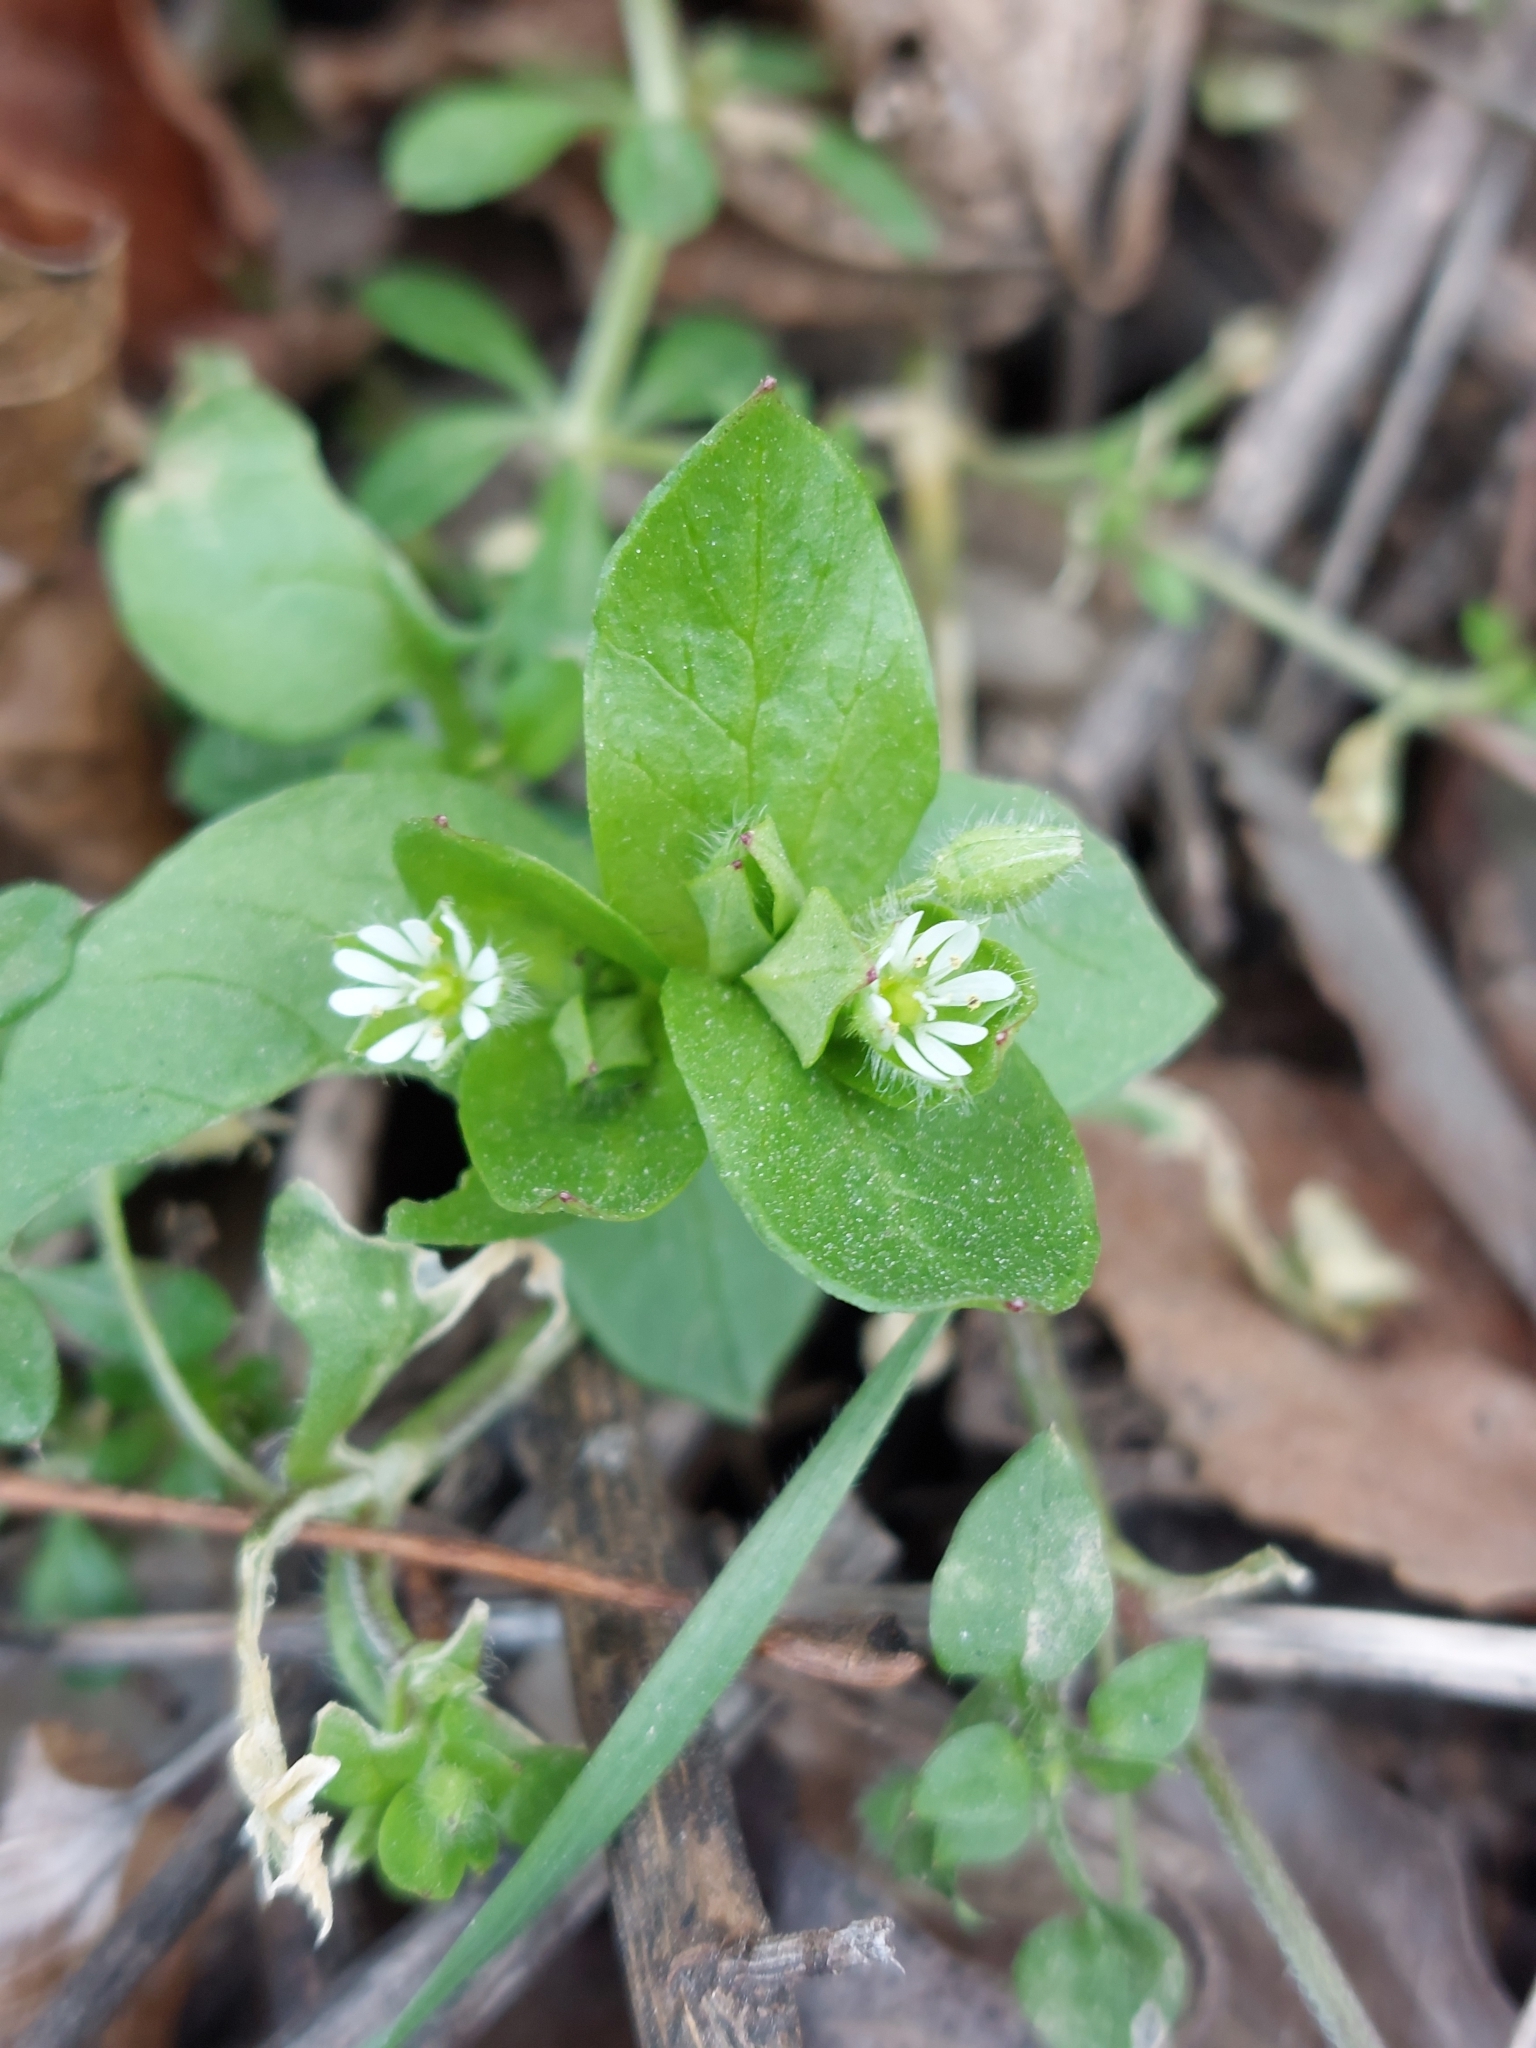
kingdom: Plantae
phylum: Tracheophyta
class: Magnoliopsida
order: Caryophyllales
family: Caryophyllaceae
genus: Stellaria
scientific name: Stellaria media
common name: Common chickweed
